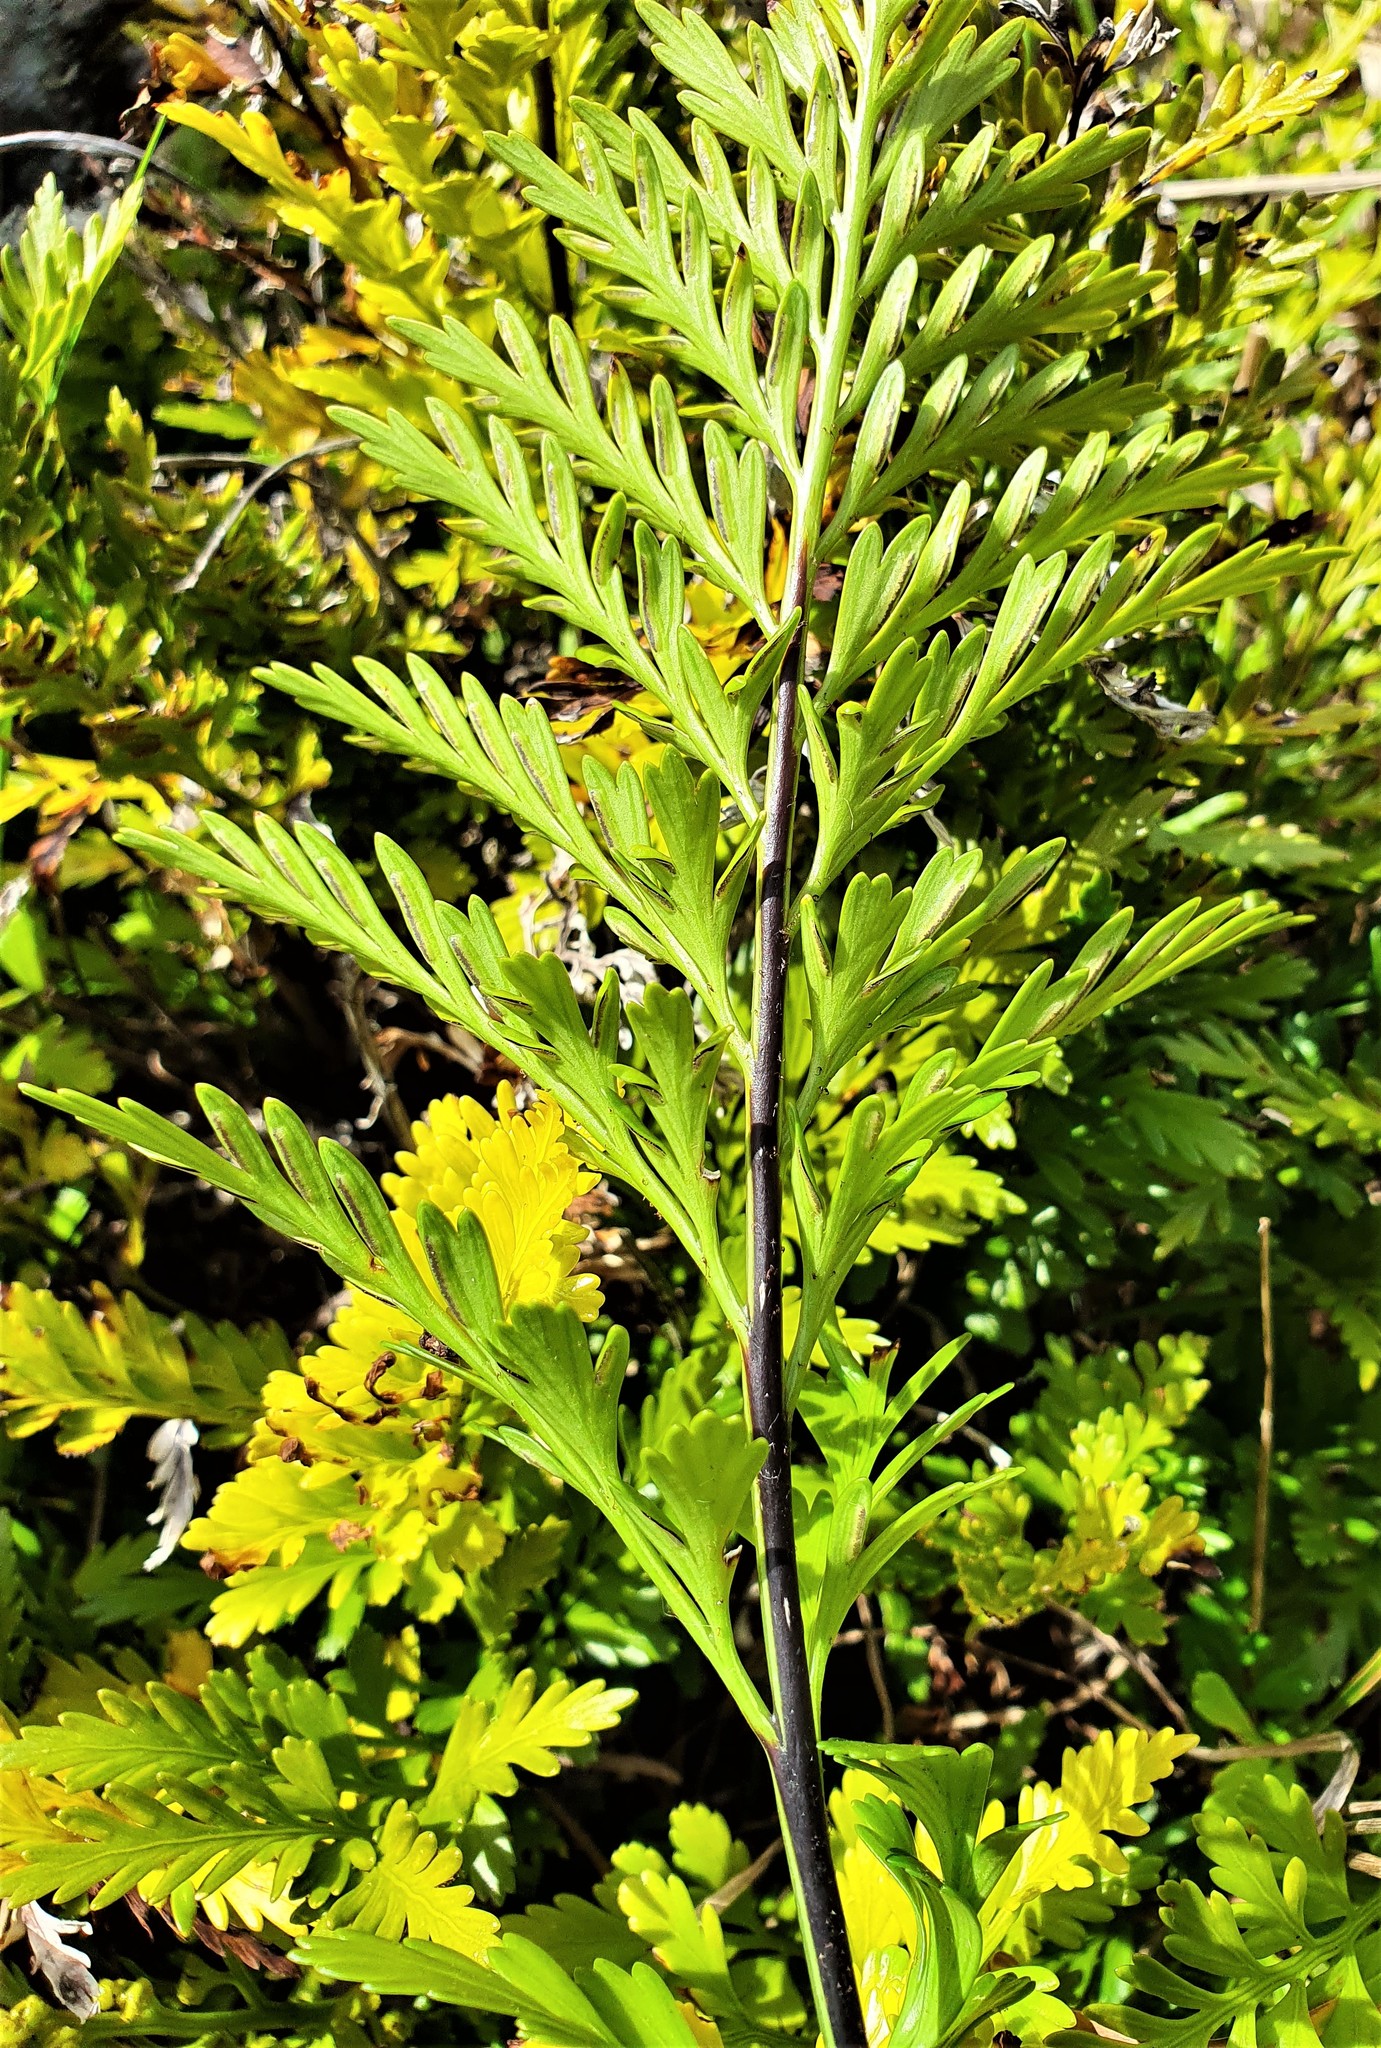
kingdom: Plantae
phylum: Tracheophyta
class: Polypodiopsida
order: Polypodiales
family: Aspleniaceae
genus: Asplenium
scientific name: Asplenium chathamense
